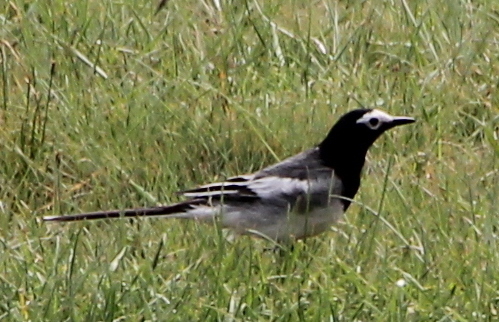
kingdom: Animalia
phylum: Chordata
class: Aves
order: Passeriformes
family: Motacillidae
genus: Motacilla
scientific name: Motacilla alba
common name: White wagtail
